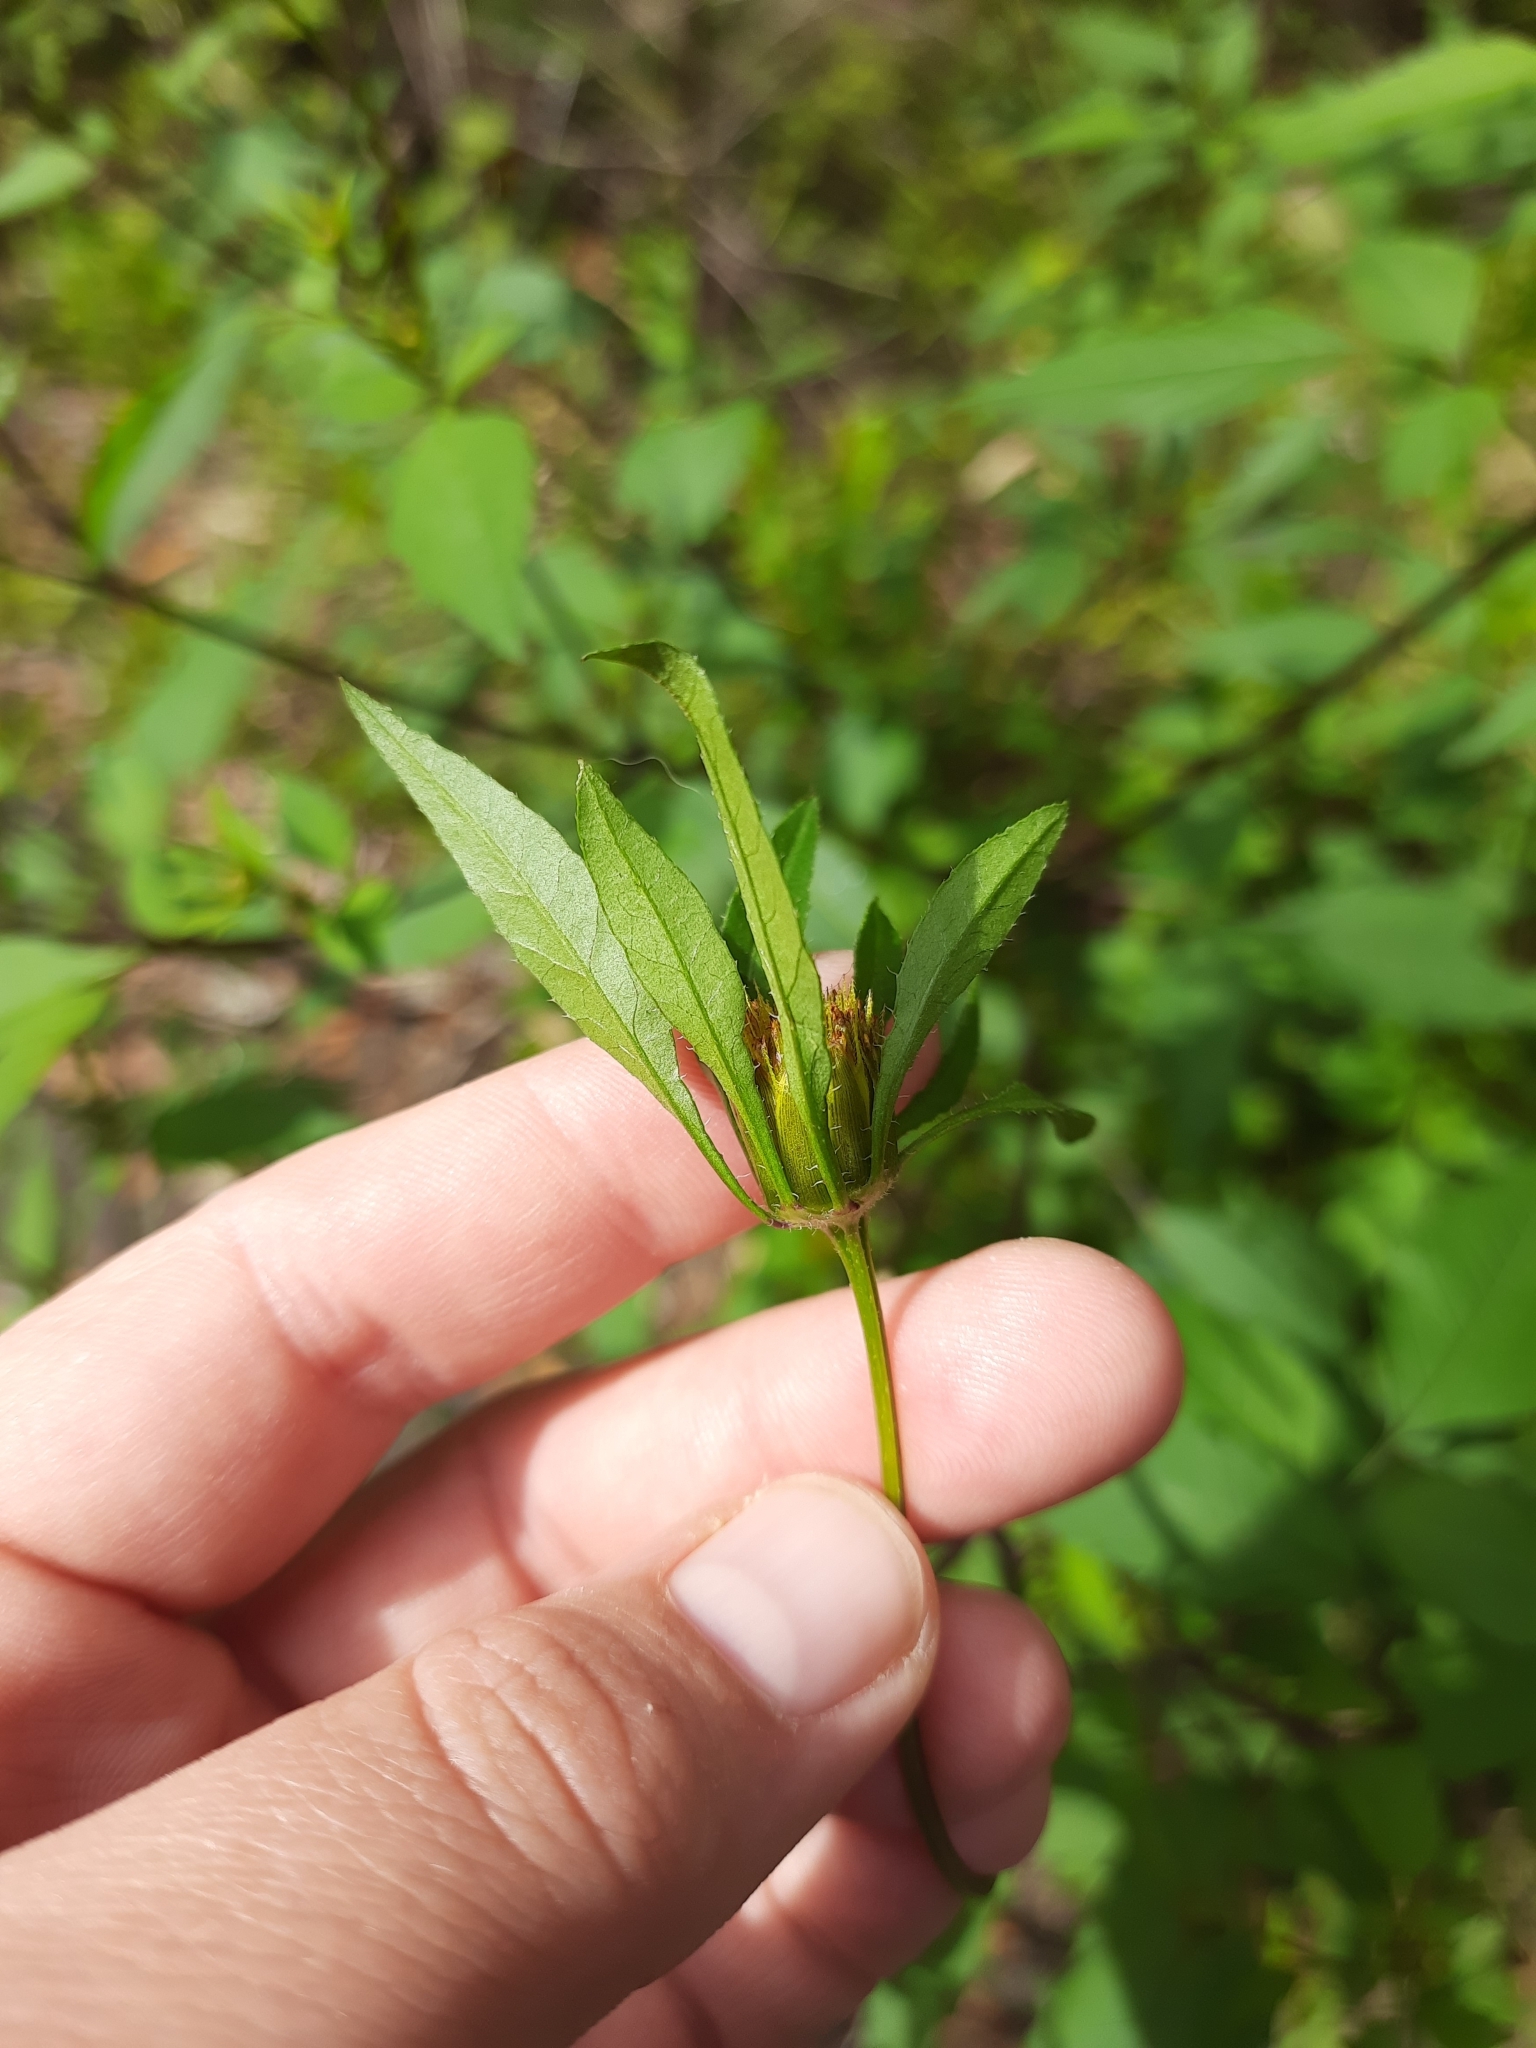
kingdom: Plantae
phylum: Tracheophyta
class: Magnoliopsida
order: Asterales
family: Asteraceae
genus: Bidens
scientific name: Bidens frondosa
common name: Beggarticks
